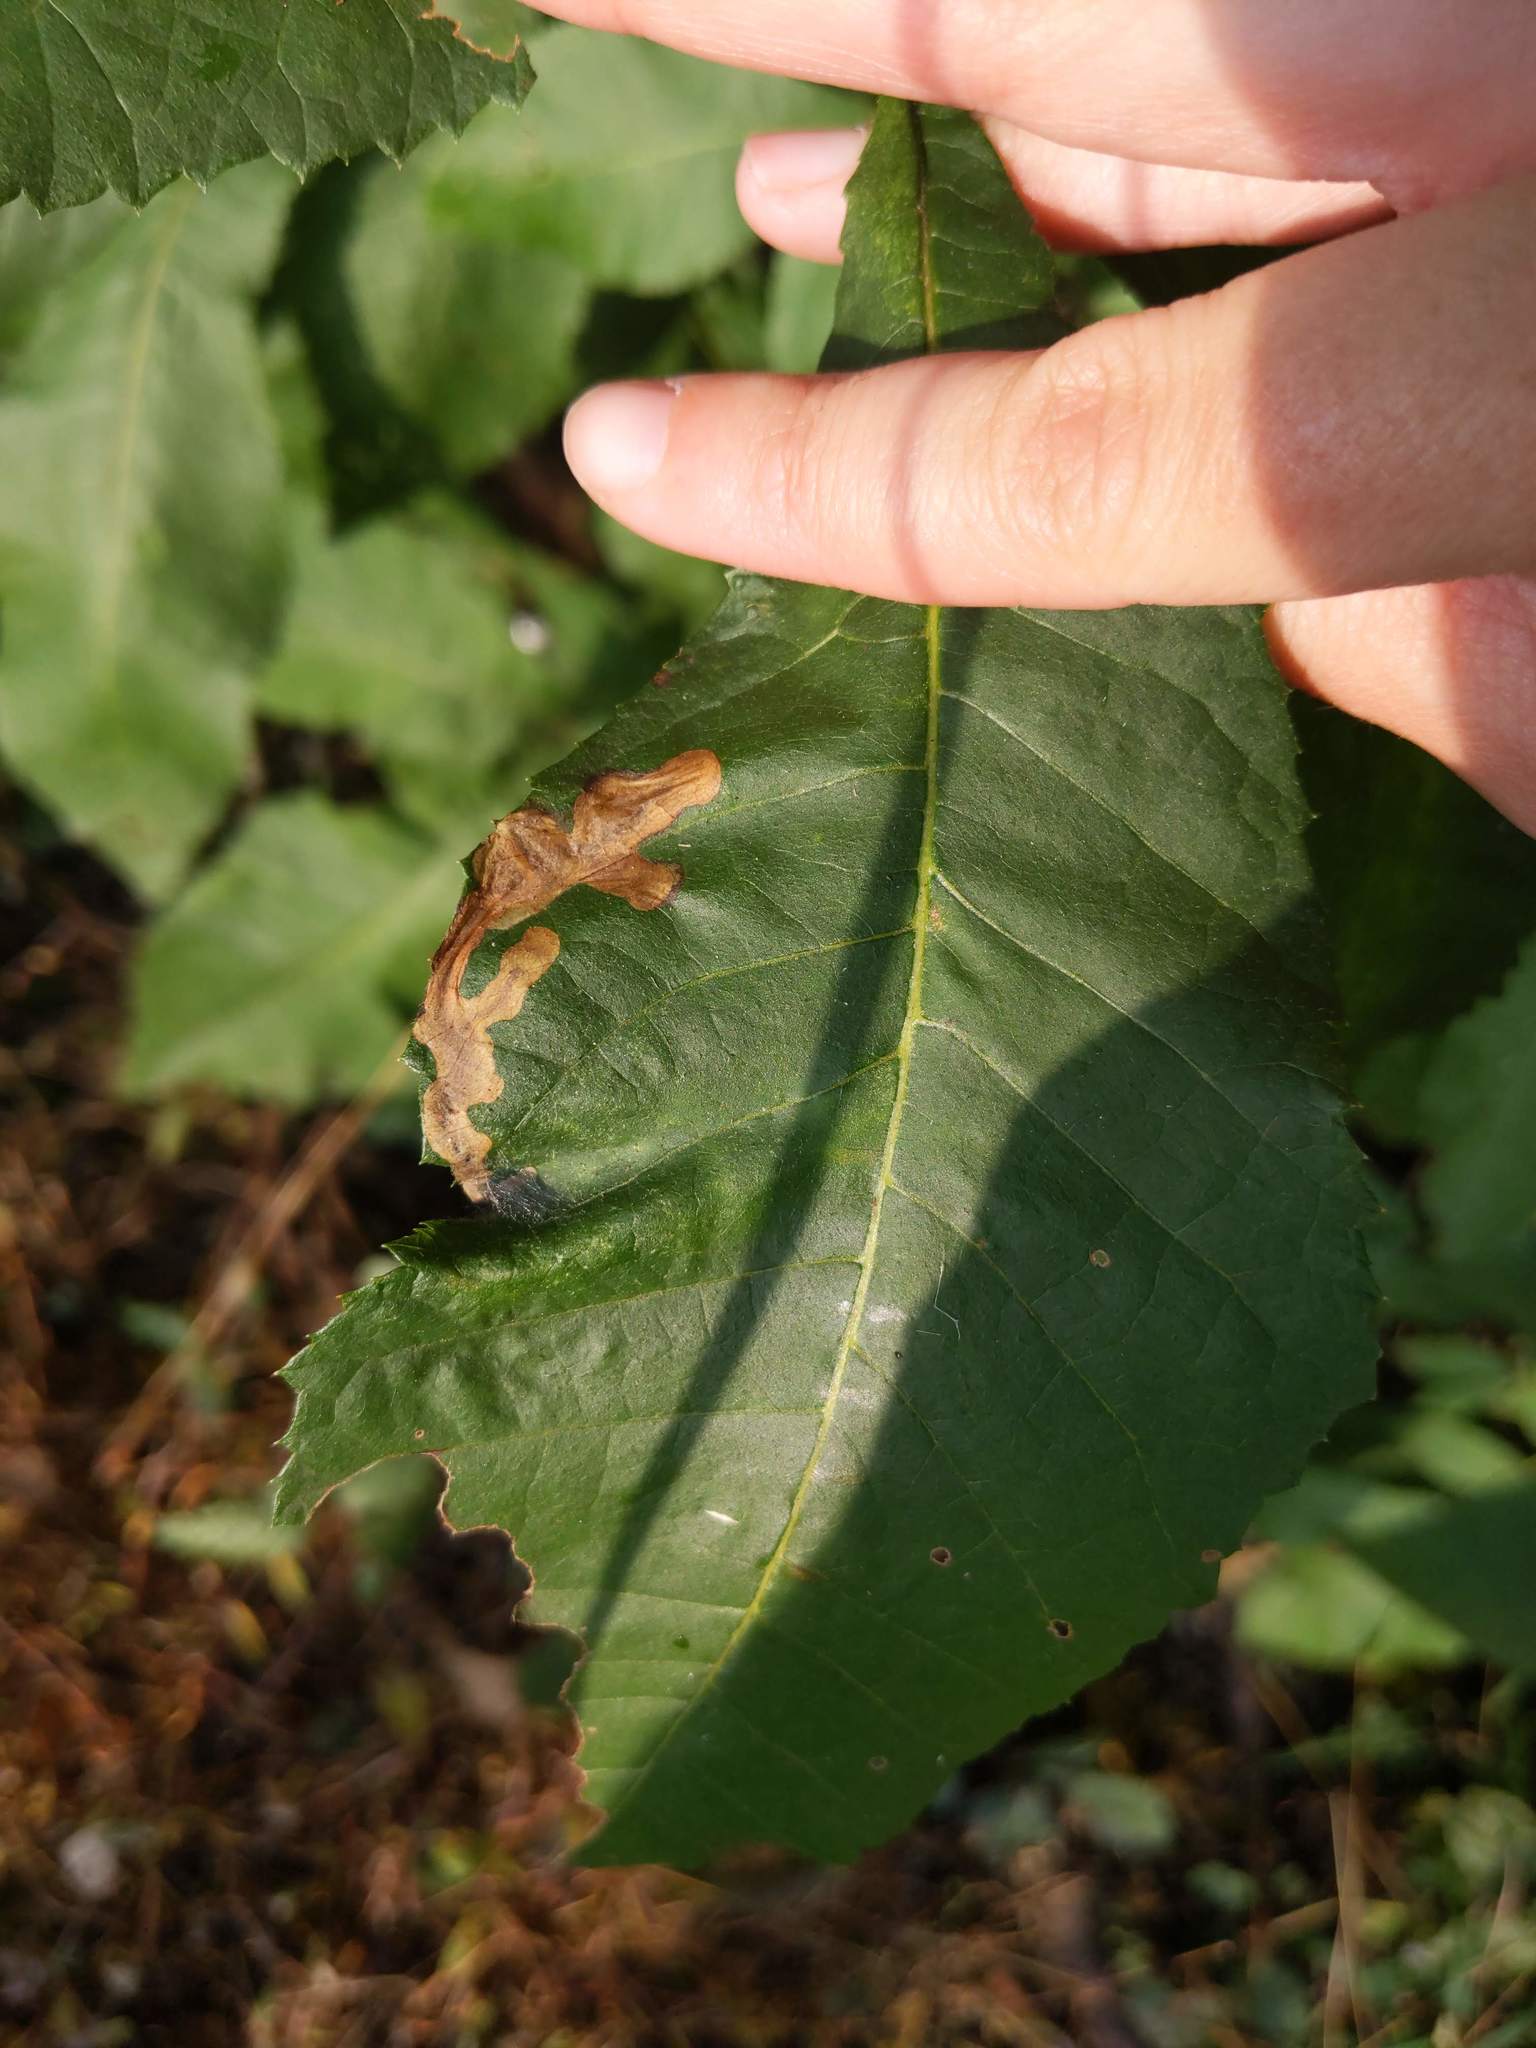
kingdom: Animalia
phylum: Arthropoda
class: Insecta
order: Lepidoptera
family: Gracillariidae
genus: Cameraria
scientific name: Cameraria caryaefoliella
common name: Pecan leafminer moth
